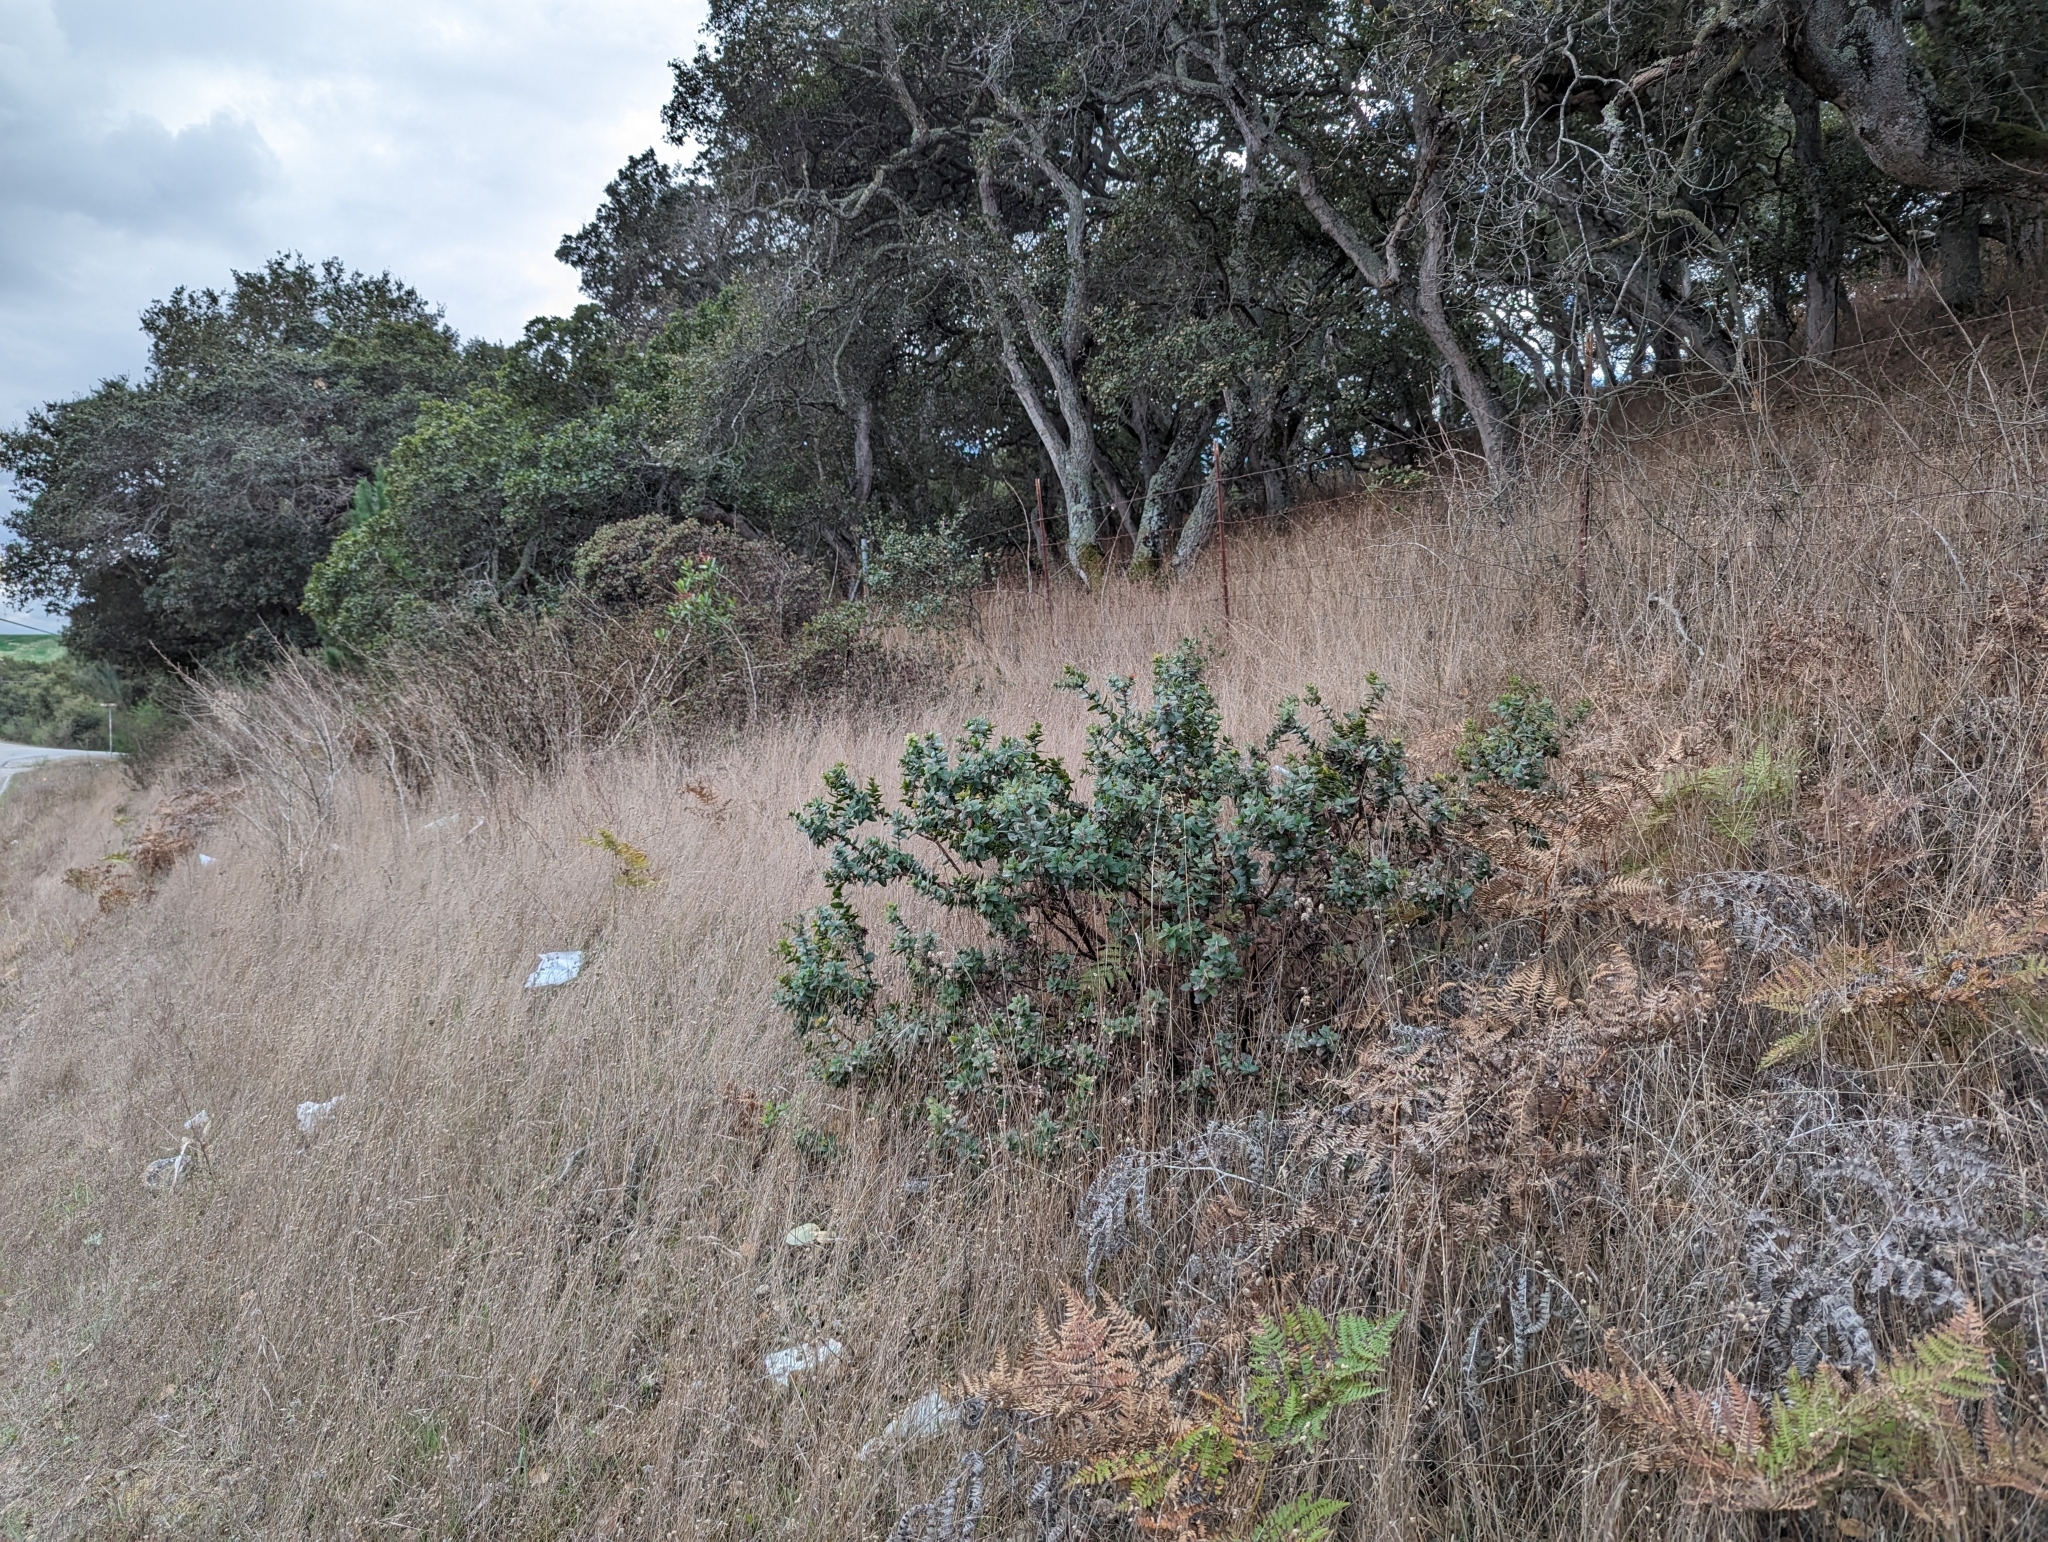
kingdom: Plantae
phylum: Tracheophyta
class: Magnoliopsida
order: Ericales
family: Ericaceae
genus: Arctostaphylos
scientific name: Arctostaphylos pajaroensis
